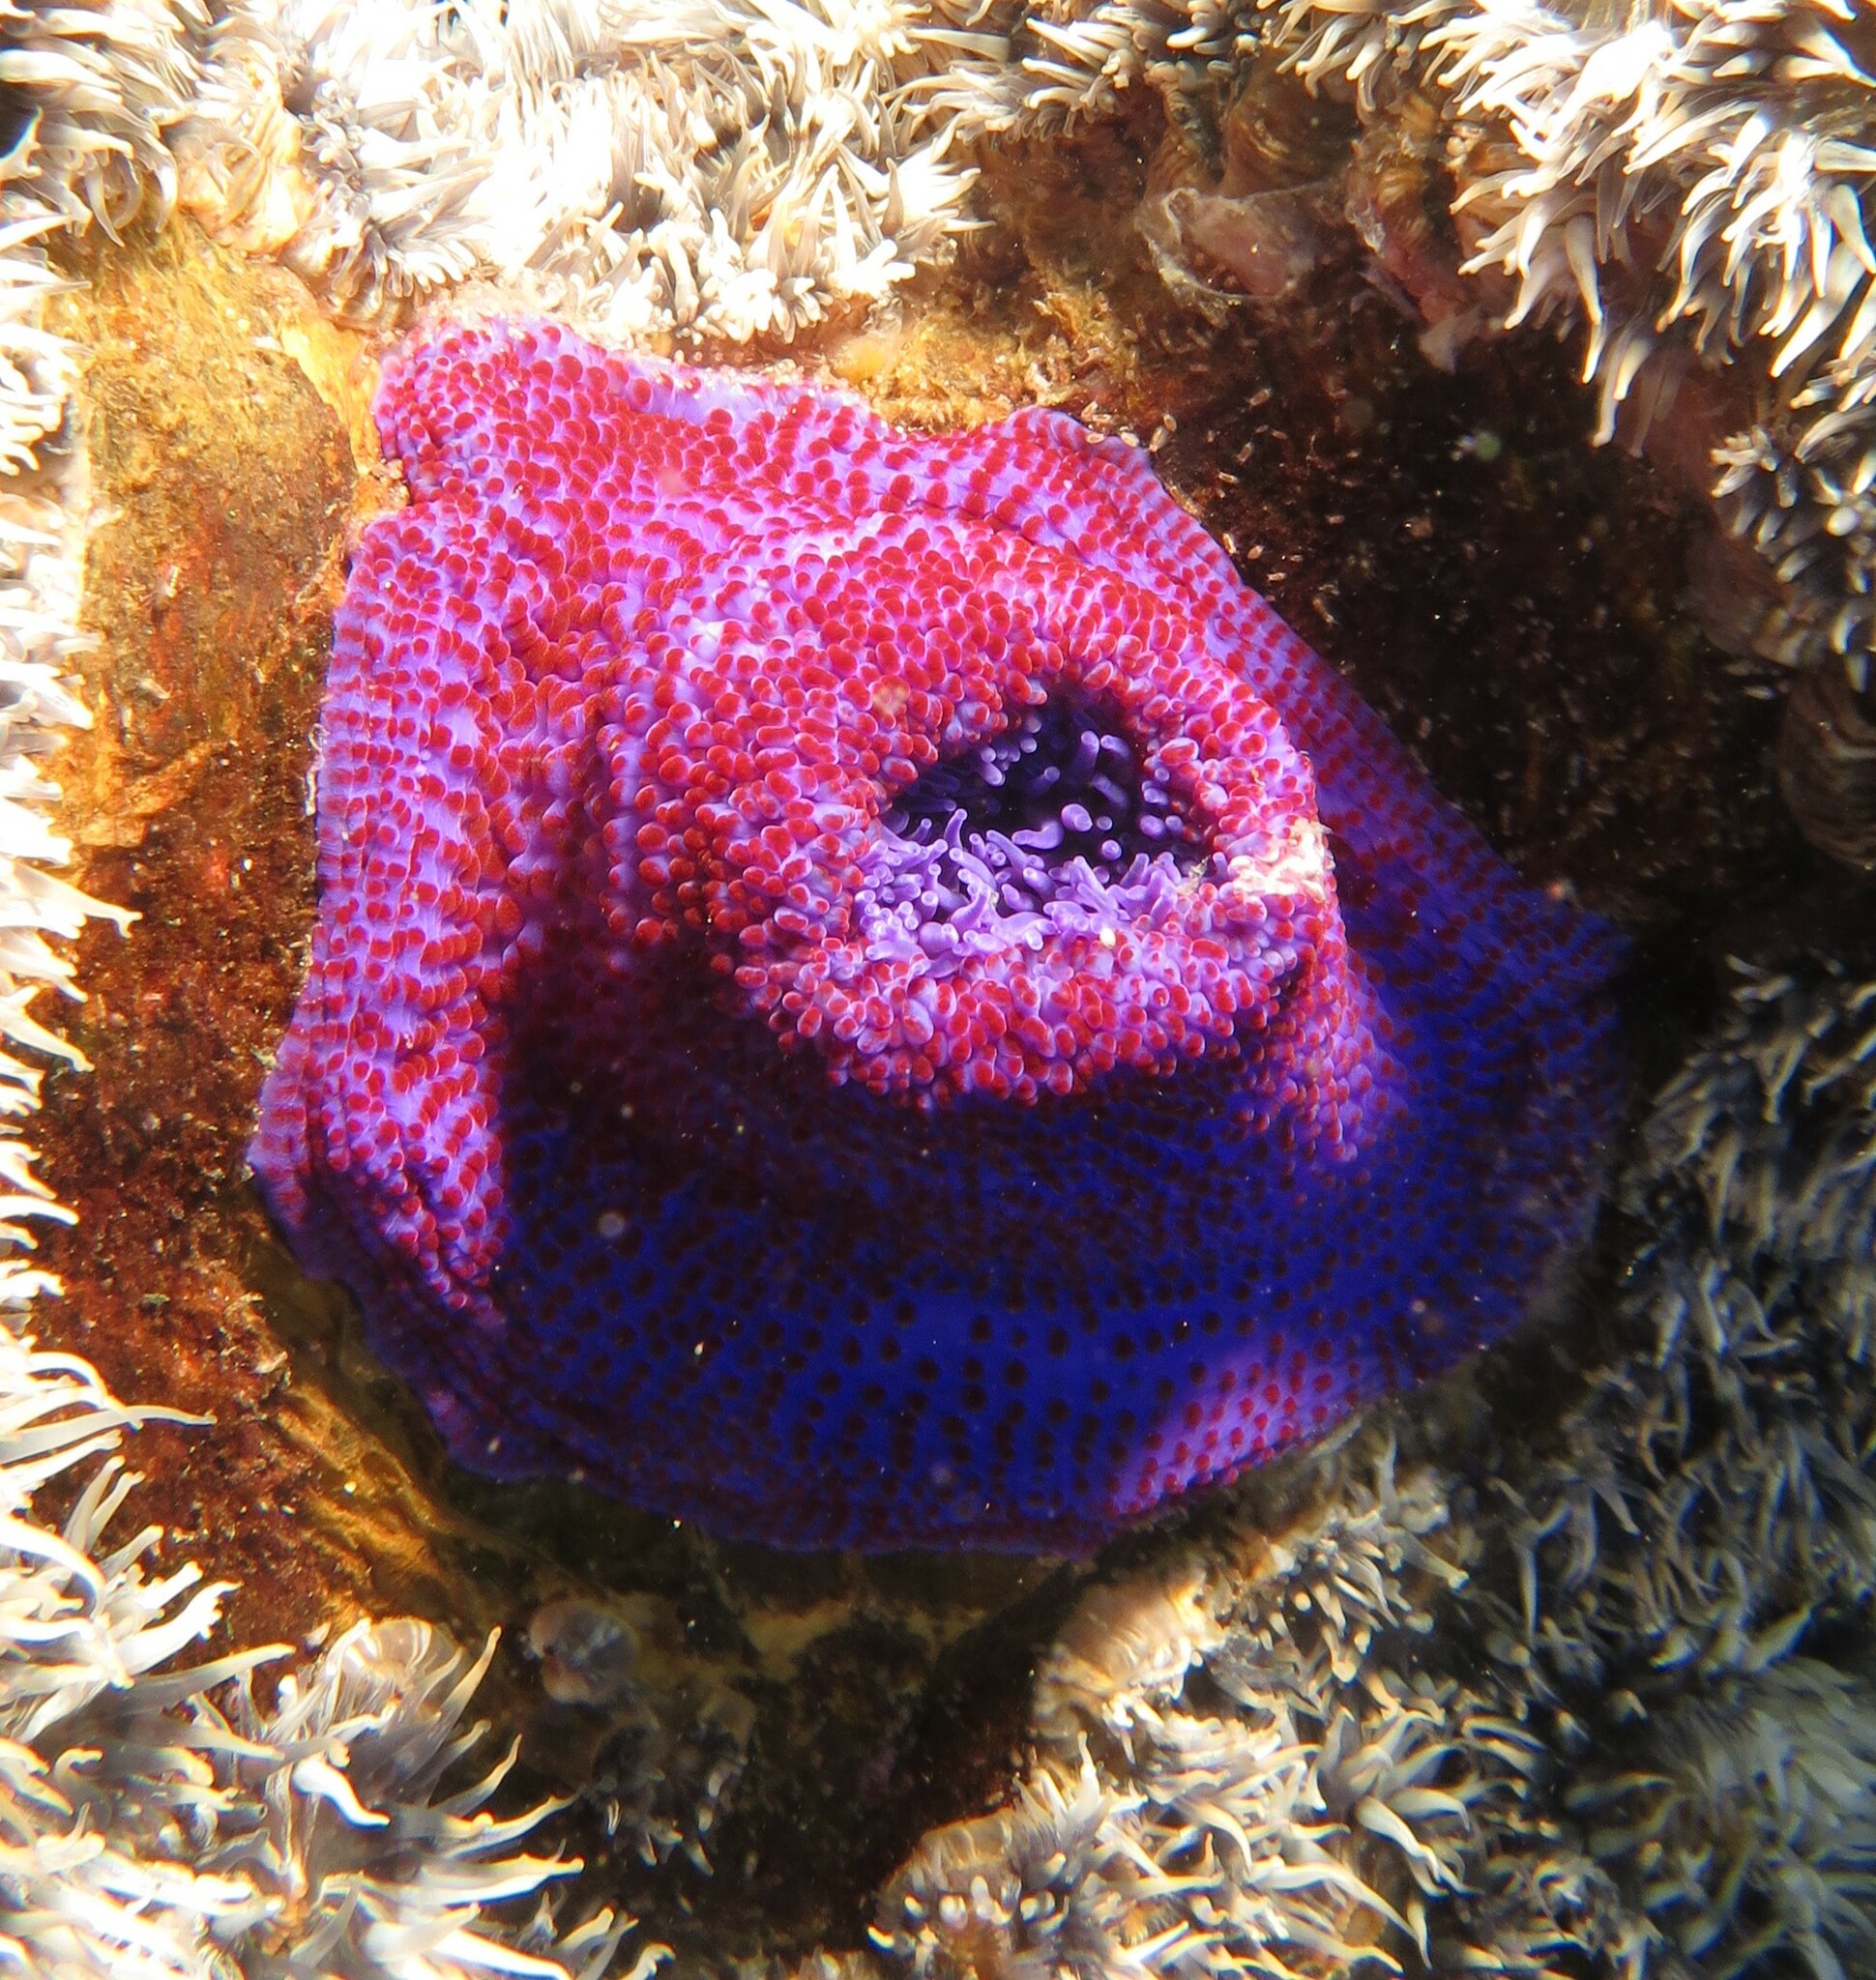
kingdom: Animalia
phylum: Cnidaria
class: Anthozoa
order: Actiniaria
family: Actiniidae
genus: Bunodosoma
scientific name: Bunodosoma capense
